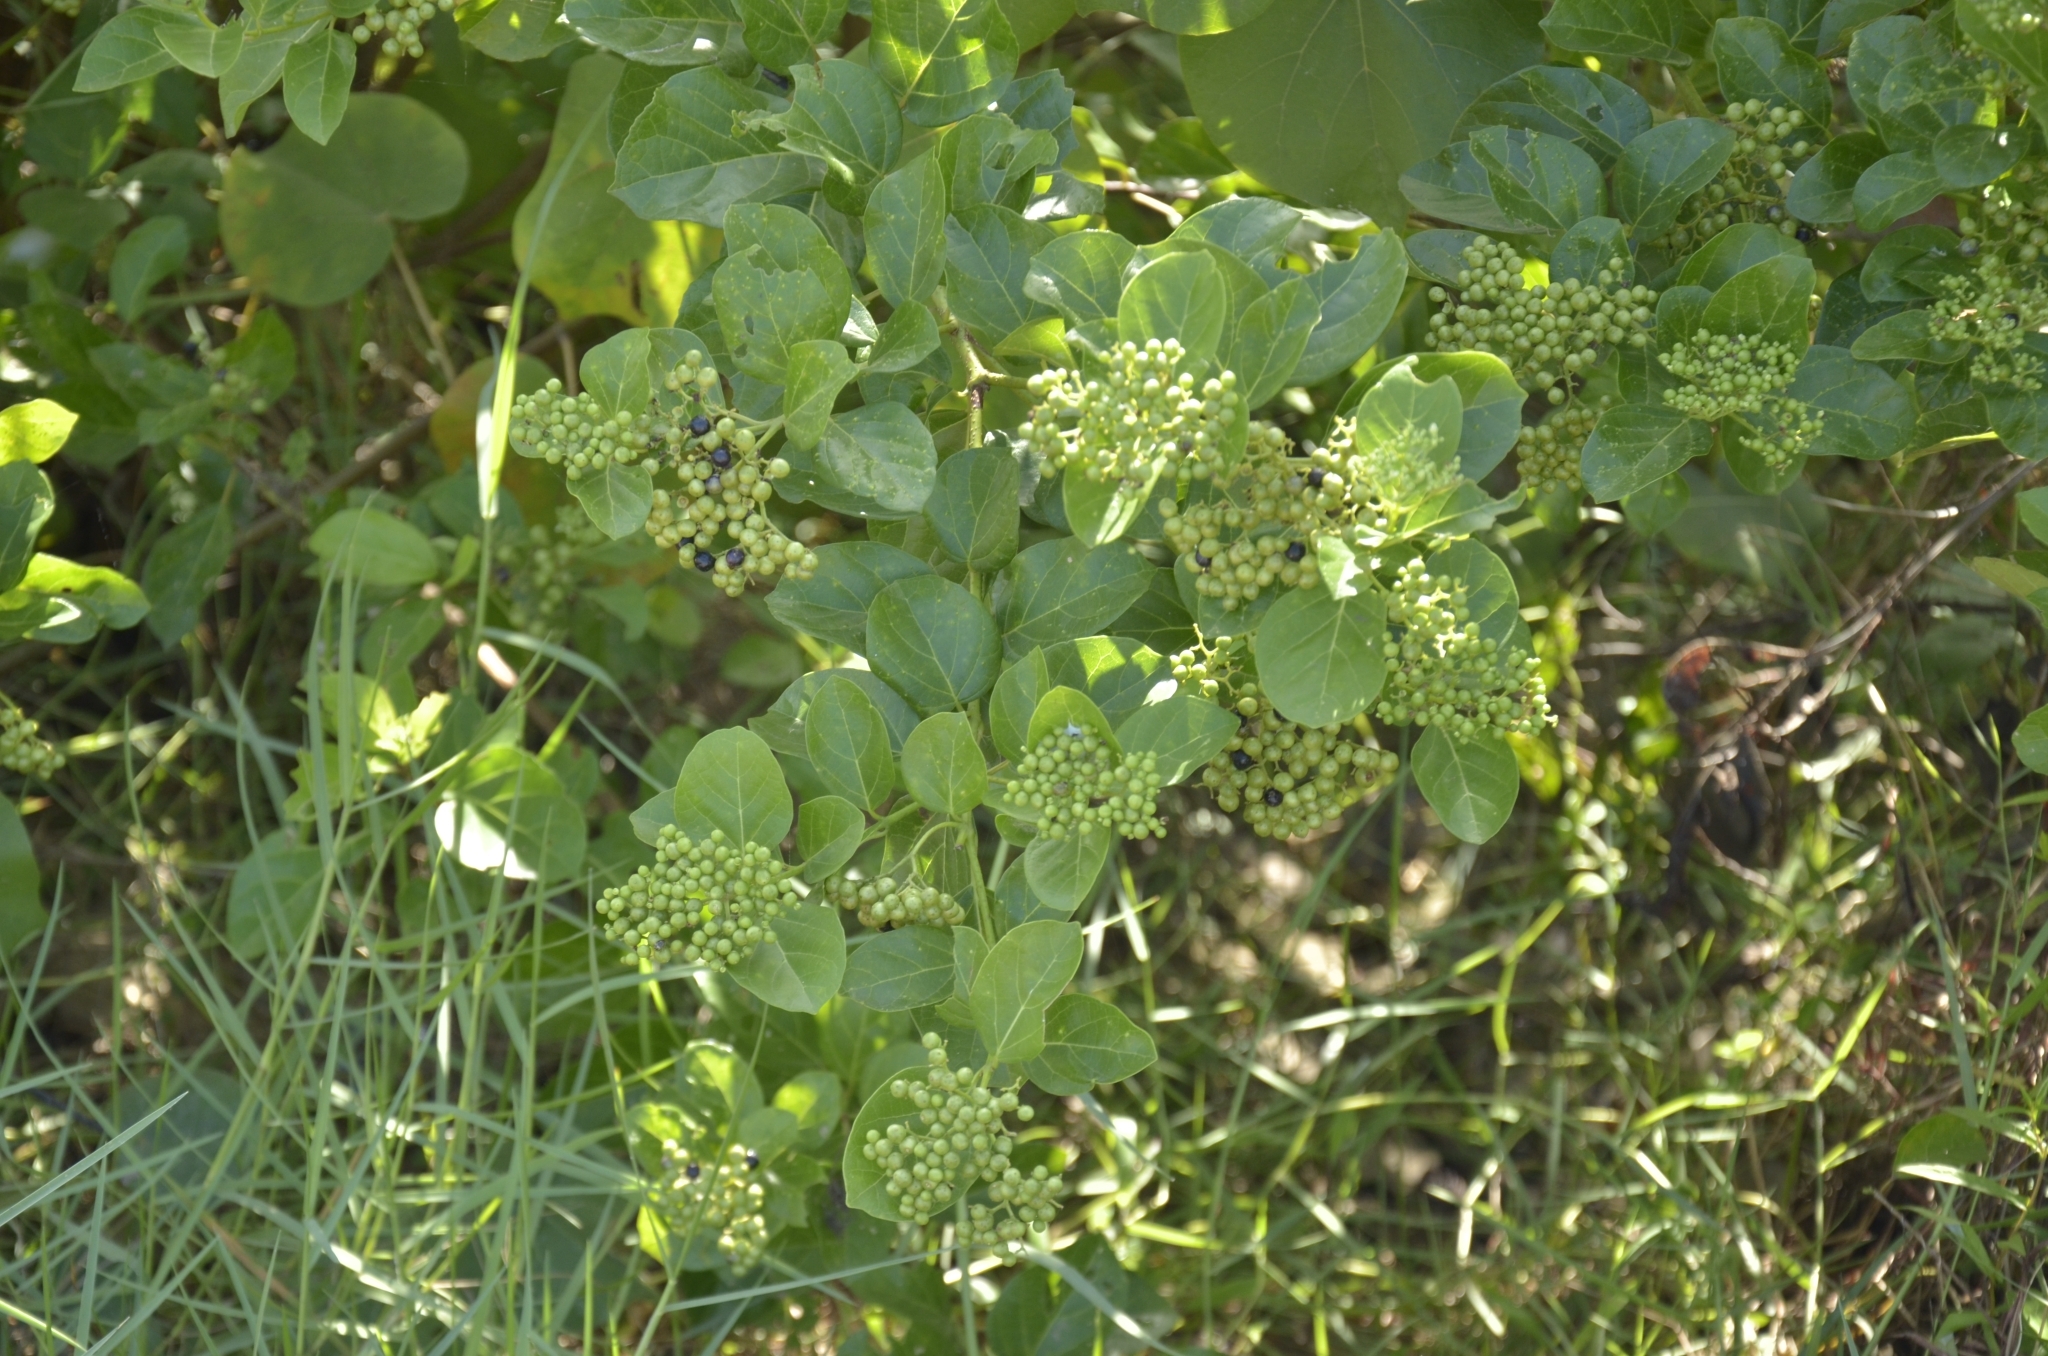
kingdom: Plantae
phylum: Tracheophyta
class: Magnoliopsida
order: Lamiales
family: Lamiaceae
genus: Premna
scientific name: Premna serratifolia
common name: Bastard guelder
